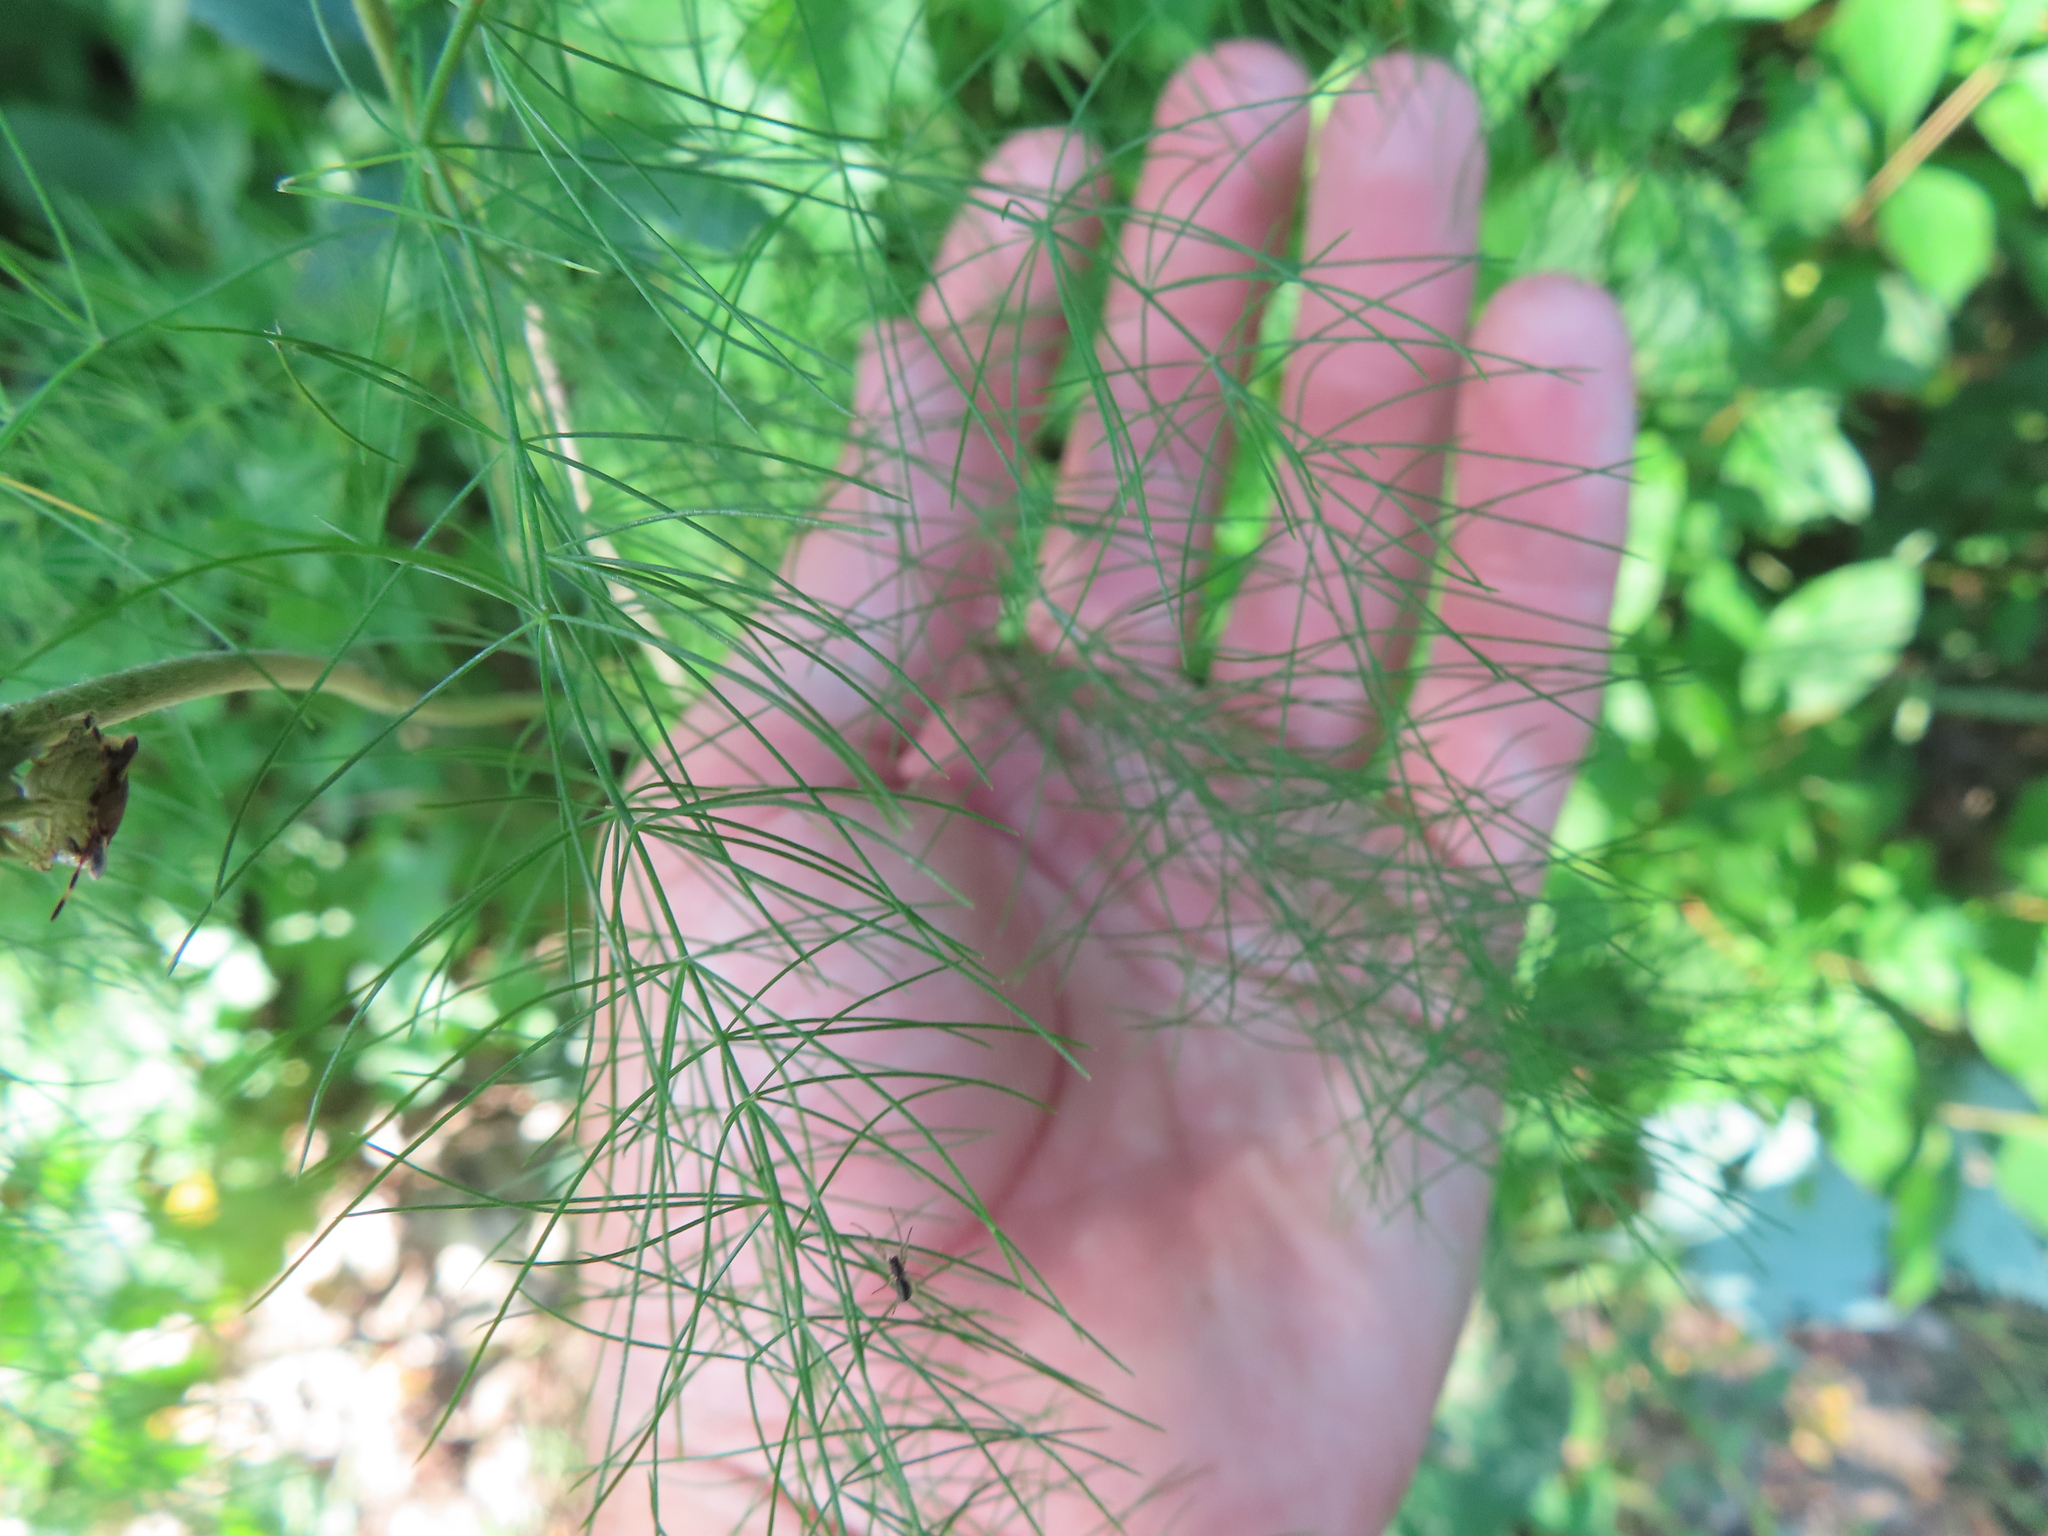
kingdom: Plantae
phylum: Tracheophyta
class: Liliopsida
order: Asparagales
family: Asparagaceae
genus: Asparagus
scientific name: Asparagus officinalis
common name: Garden asparagus
